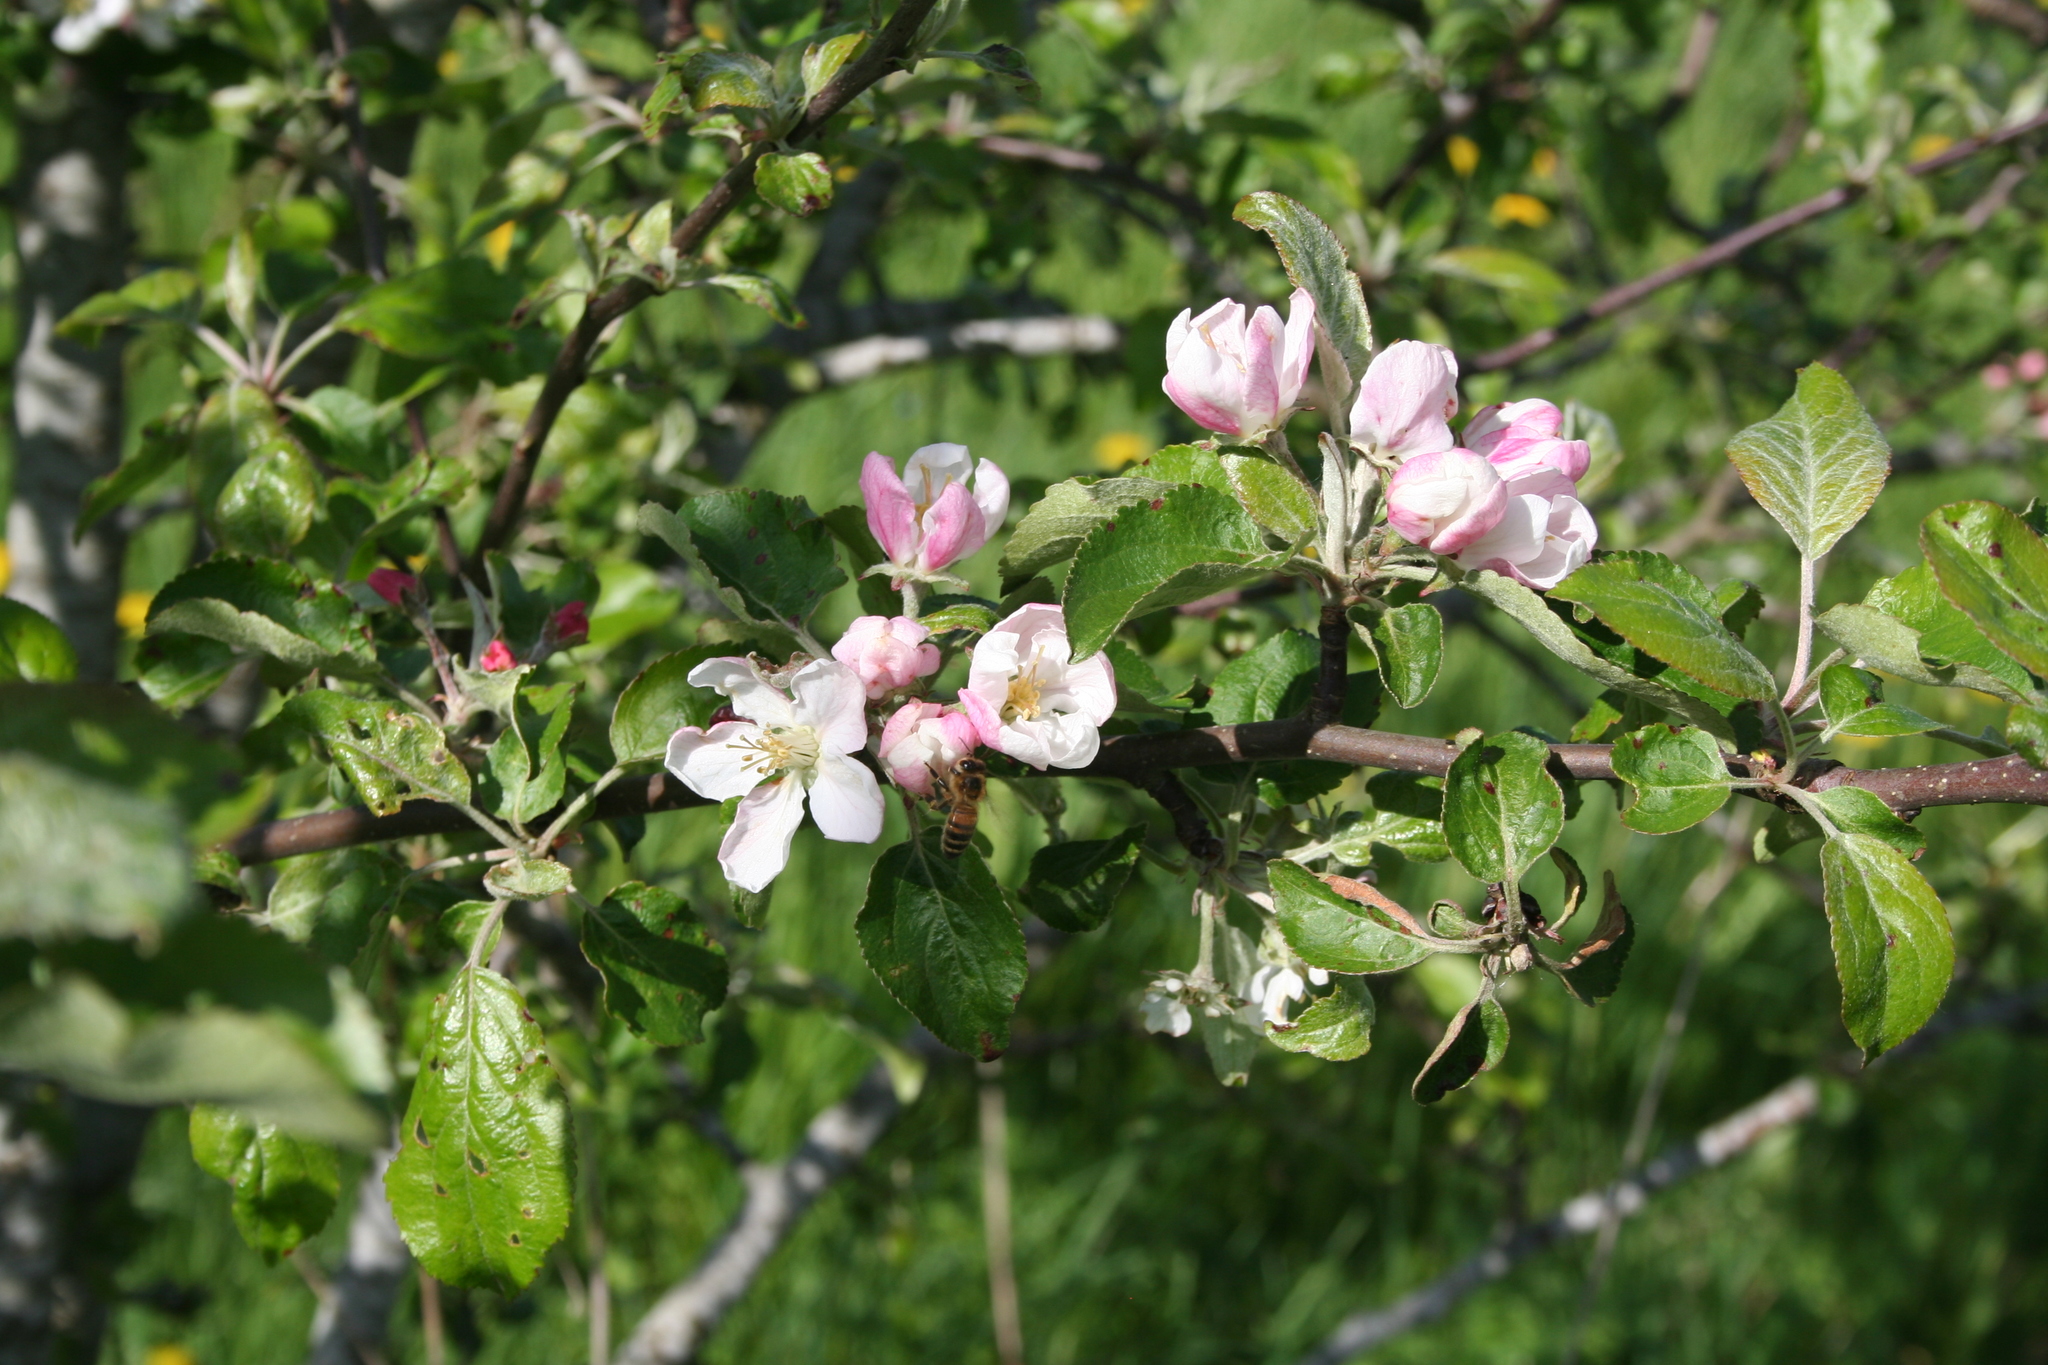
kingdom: Plantae
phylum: Tracheophyta
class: Magnoliopsida
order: Rosales
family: Rosaceae
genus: Malus
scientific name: Malus domestica
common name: Apple
